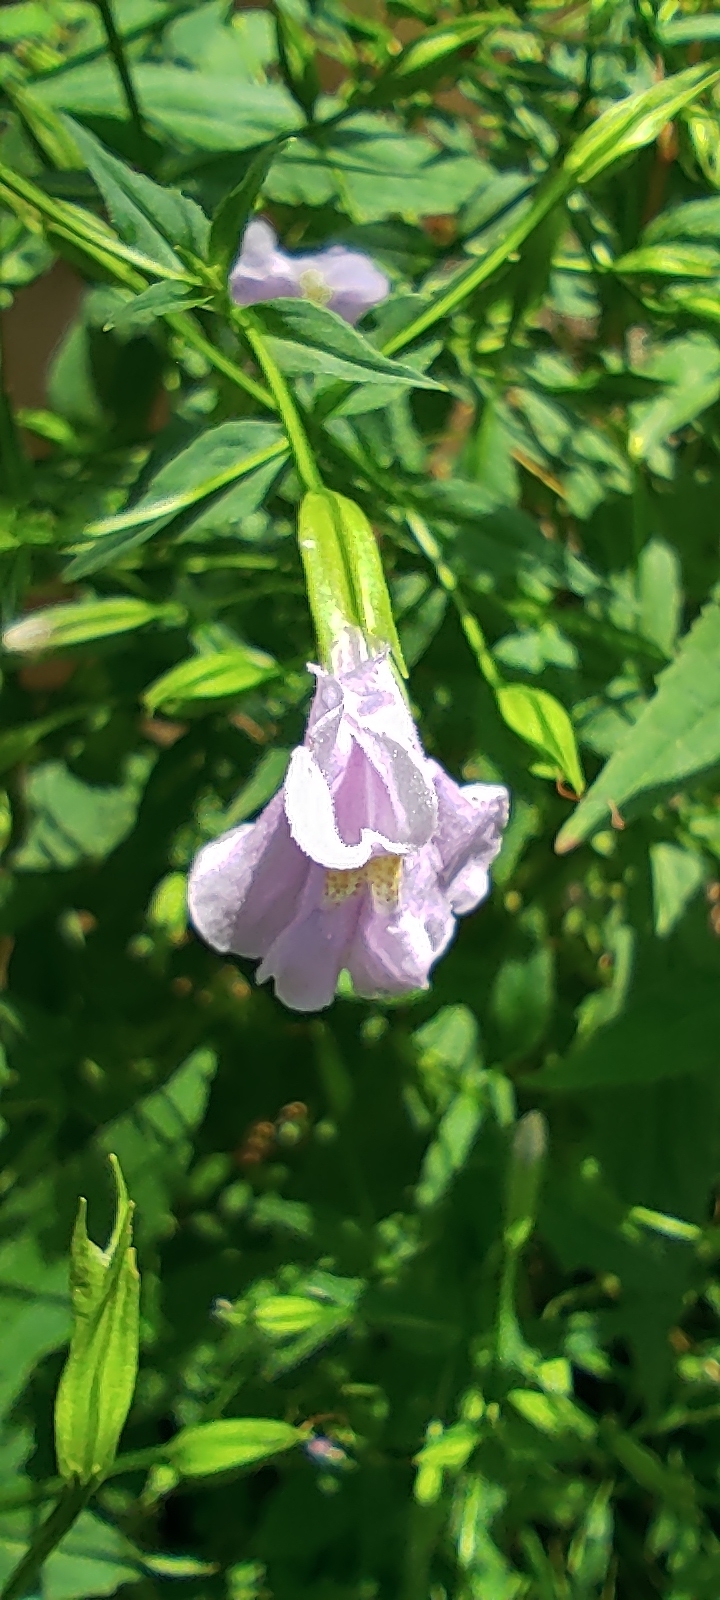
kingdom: Plantae
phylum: Tracheophyta
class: Magnoliopsida
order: Lamiales
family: Phrymaceae
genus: Mimulus
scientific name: Mimulus ringens
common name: Allegheny monkeyflower
